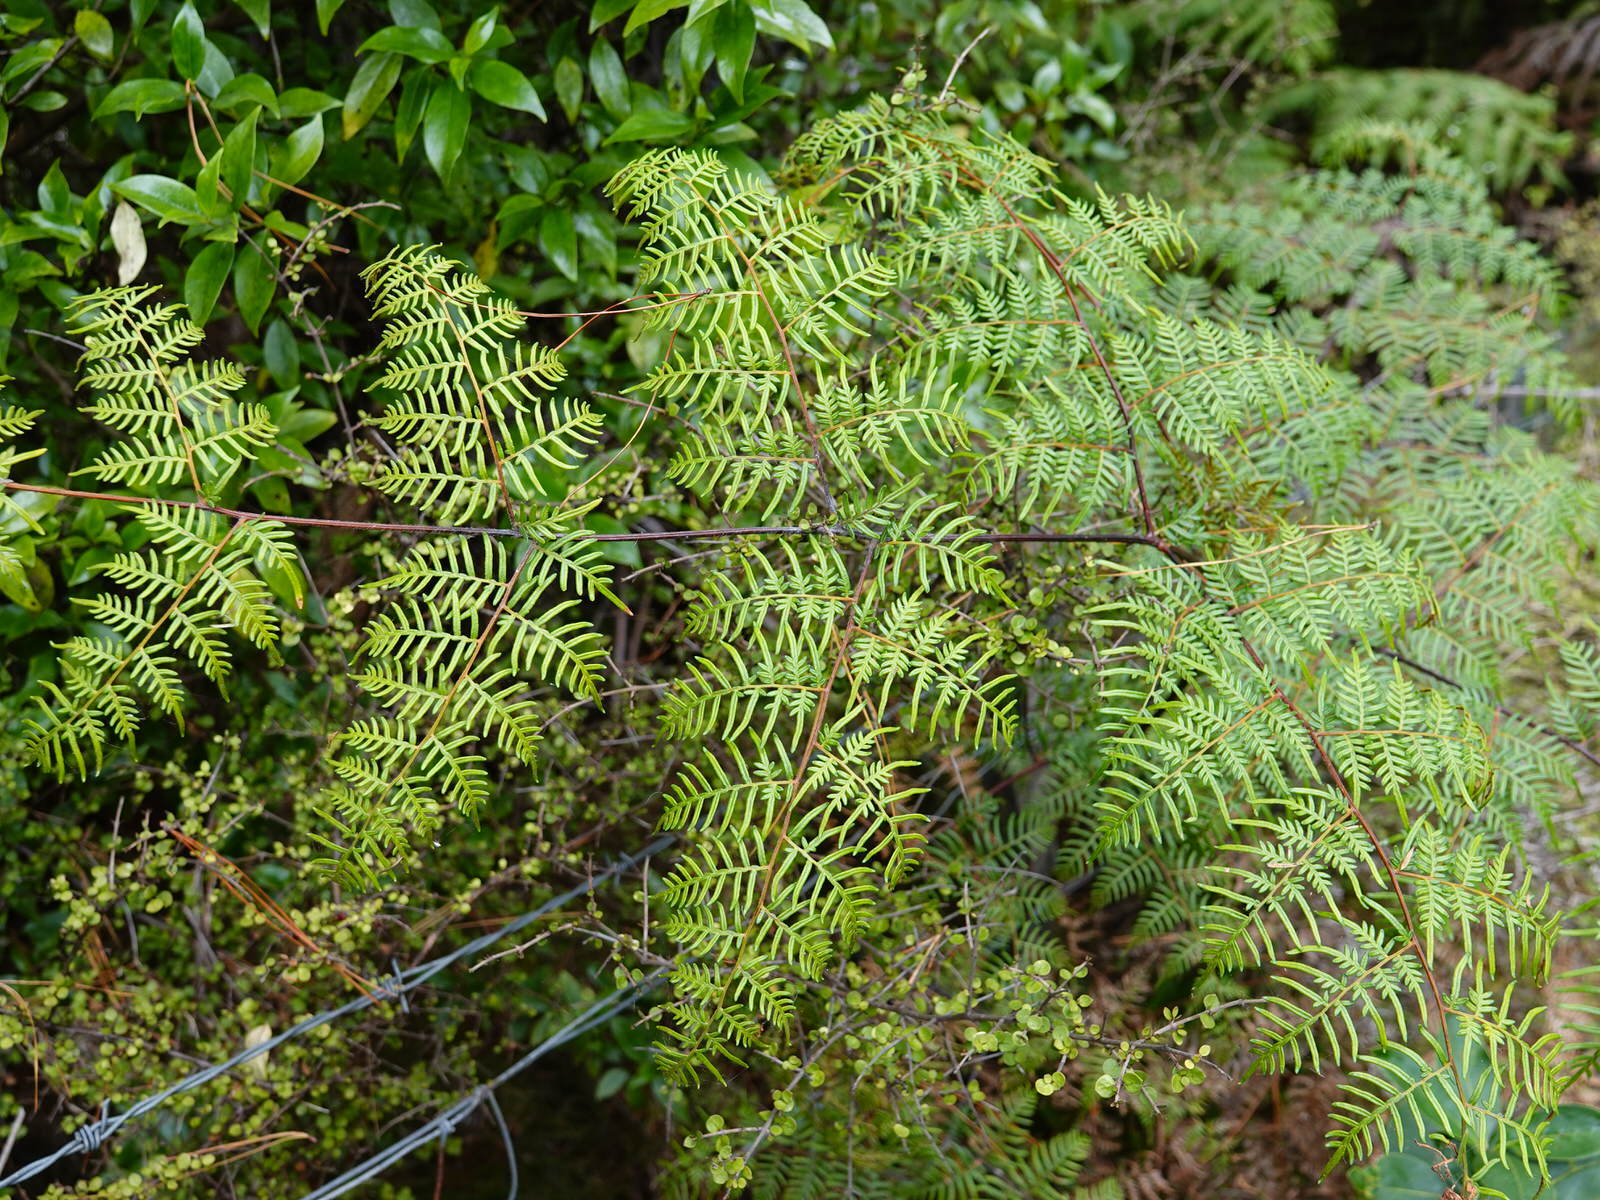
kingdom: Plantae
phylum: Tracheophyta
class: Polypodiopsida
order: Polypodiales
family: Dennstaedtiaceae
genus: Pteridium
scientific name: Pteridium esculentum
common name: Bracken fern
